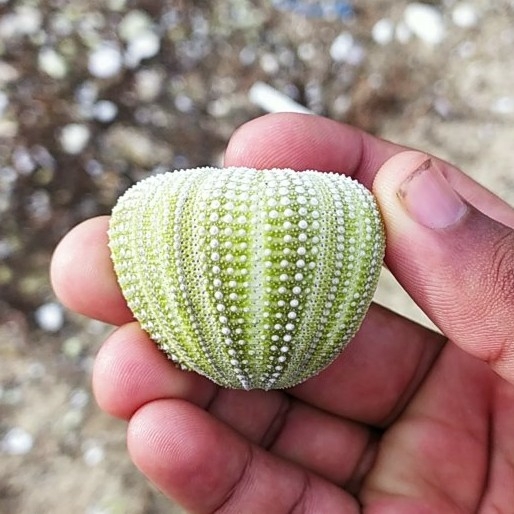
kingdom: Animalia
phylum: Echinodermata
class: Echinoidea
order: Camarodonta
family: Temnopleuridae
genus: Salmacis
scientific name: Salmacis virgulata
